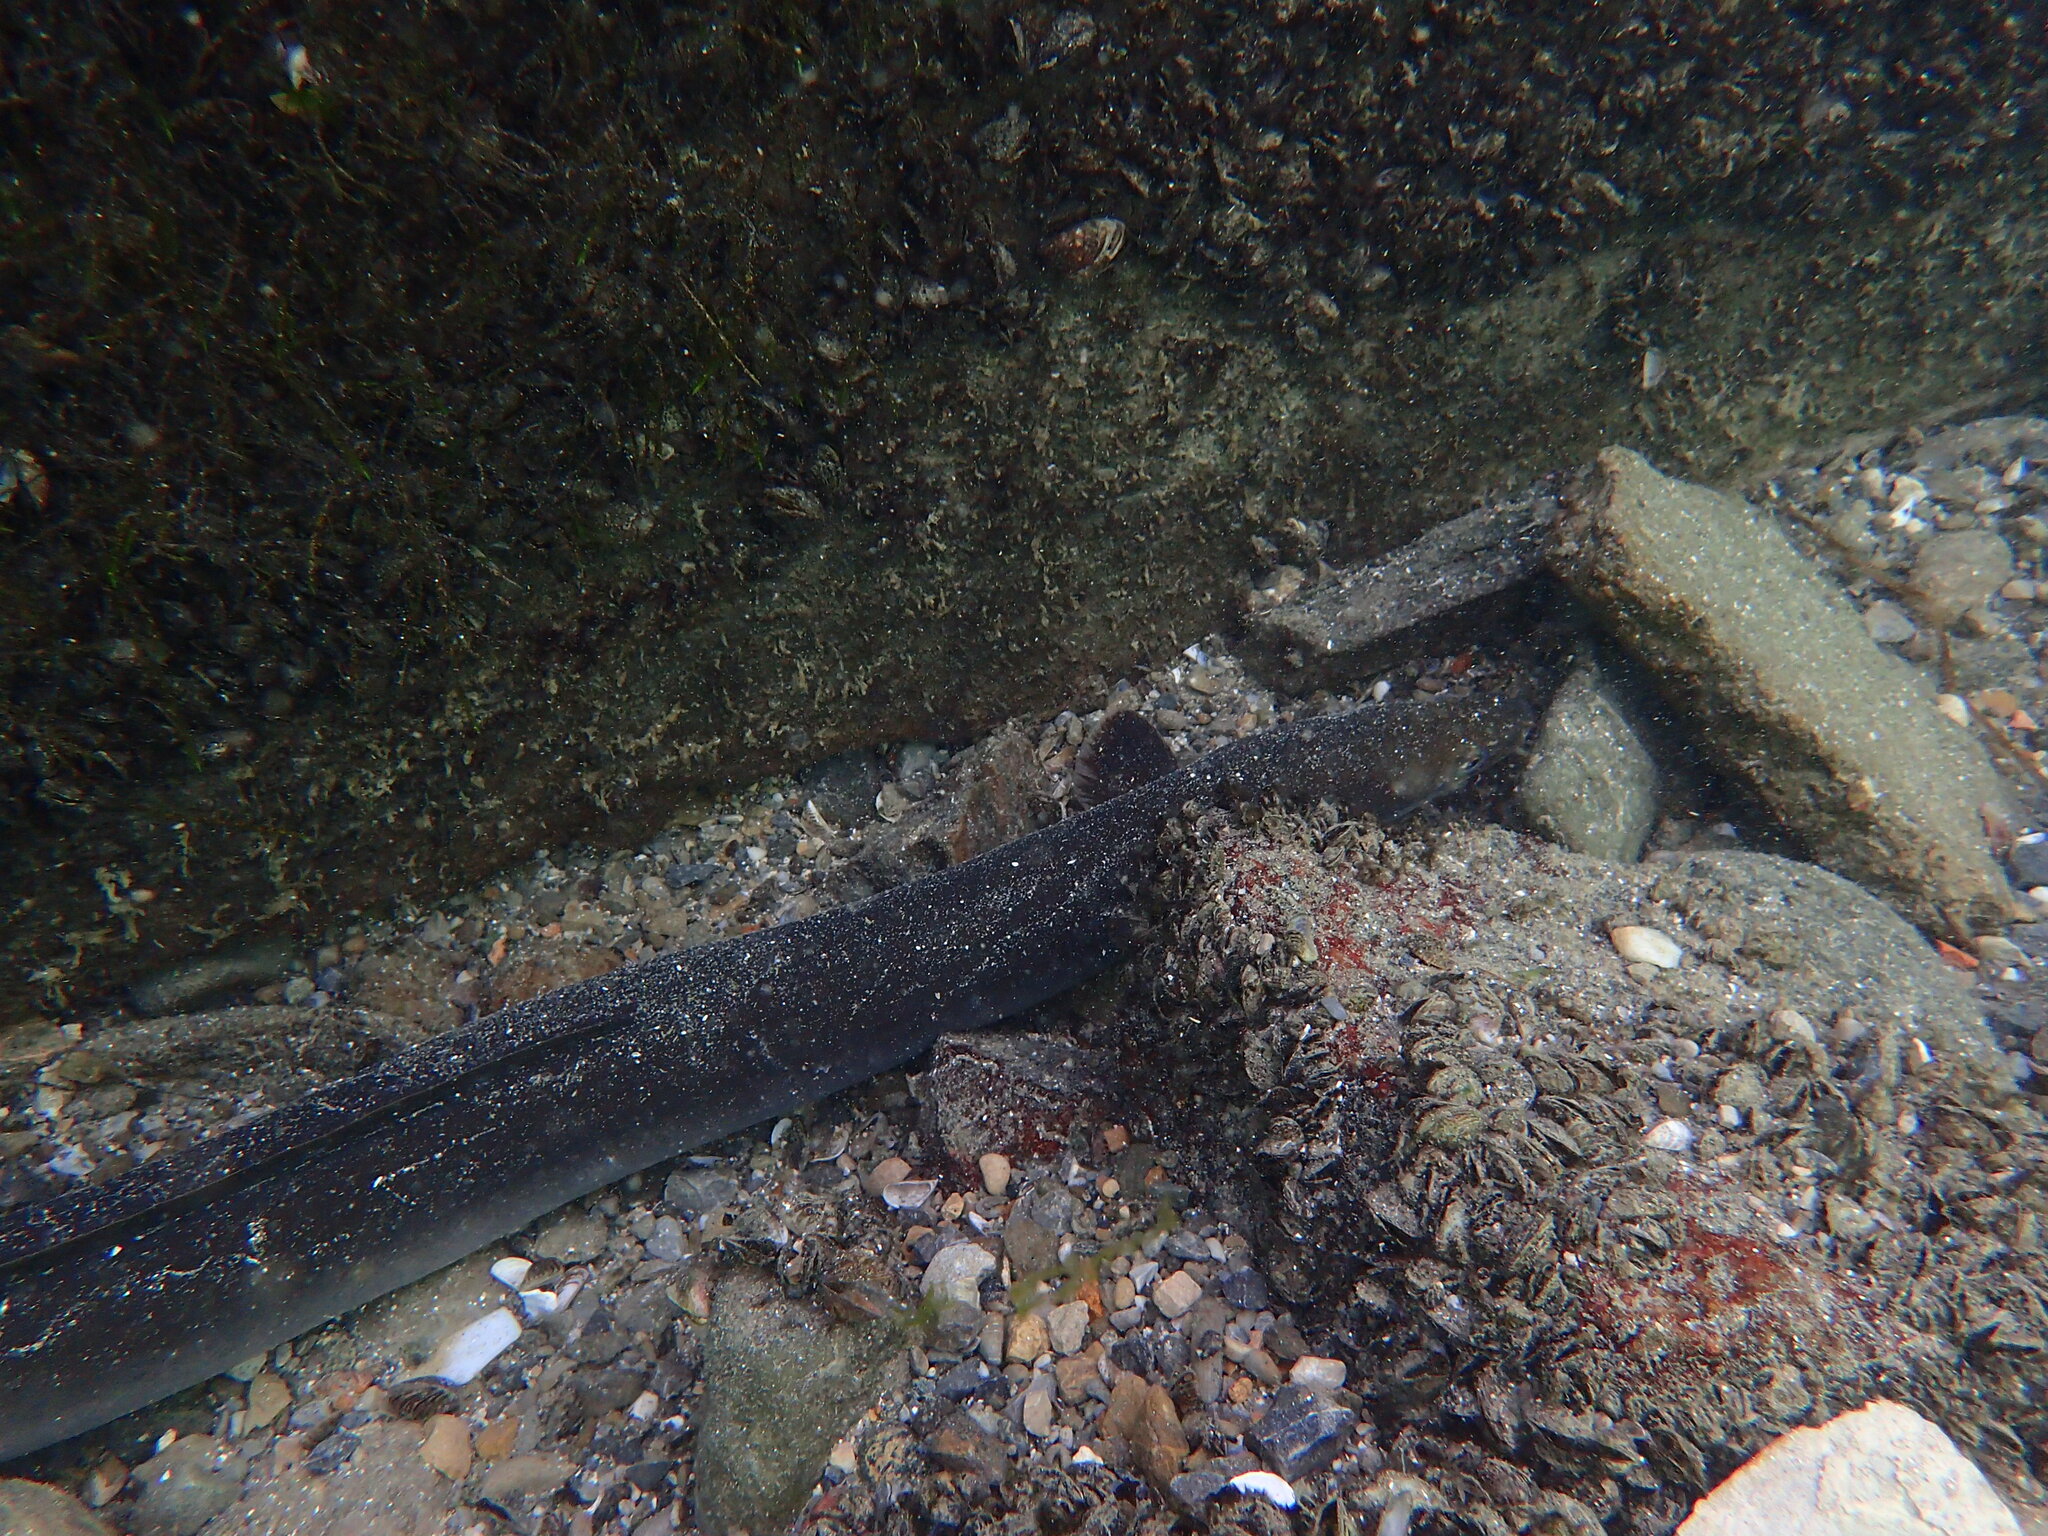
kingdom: Animalia
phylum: Chordata
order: Anguilliformes
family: Anguillidae
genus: Anguilla
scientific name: Anguilla anguilla
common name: European eel
